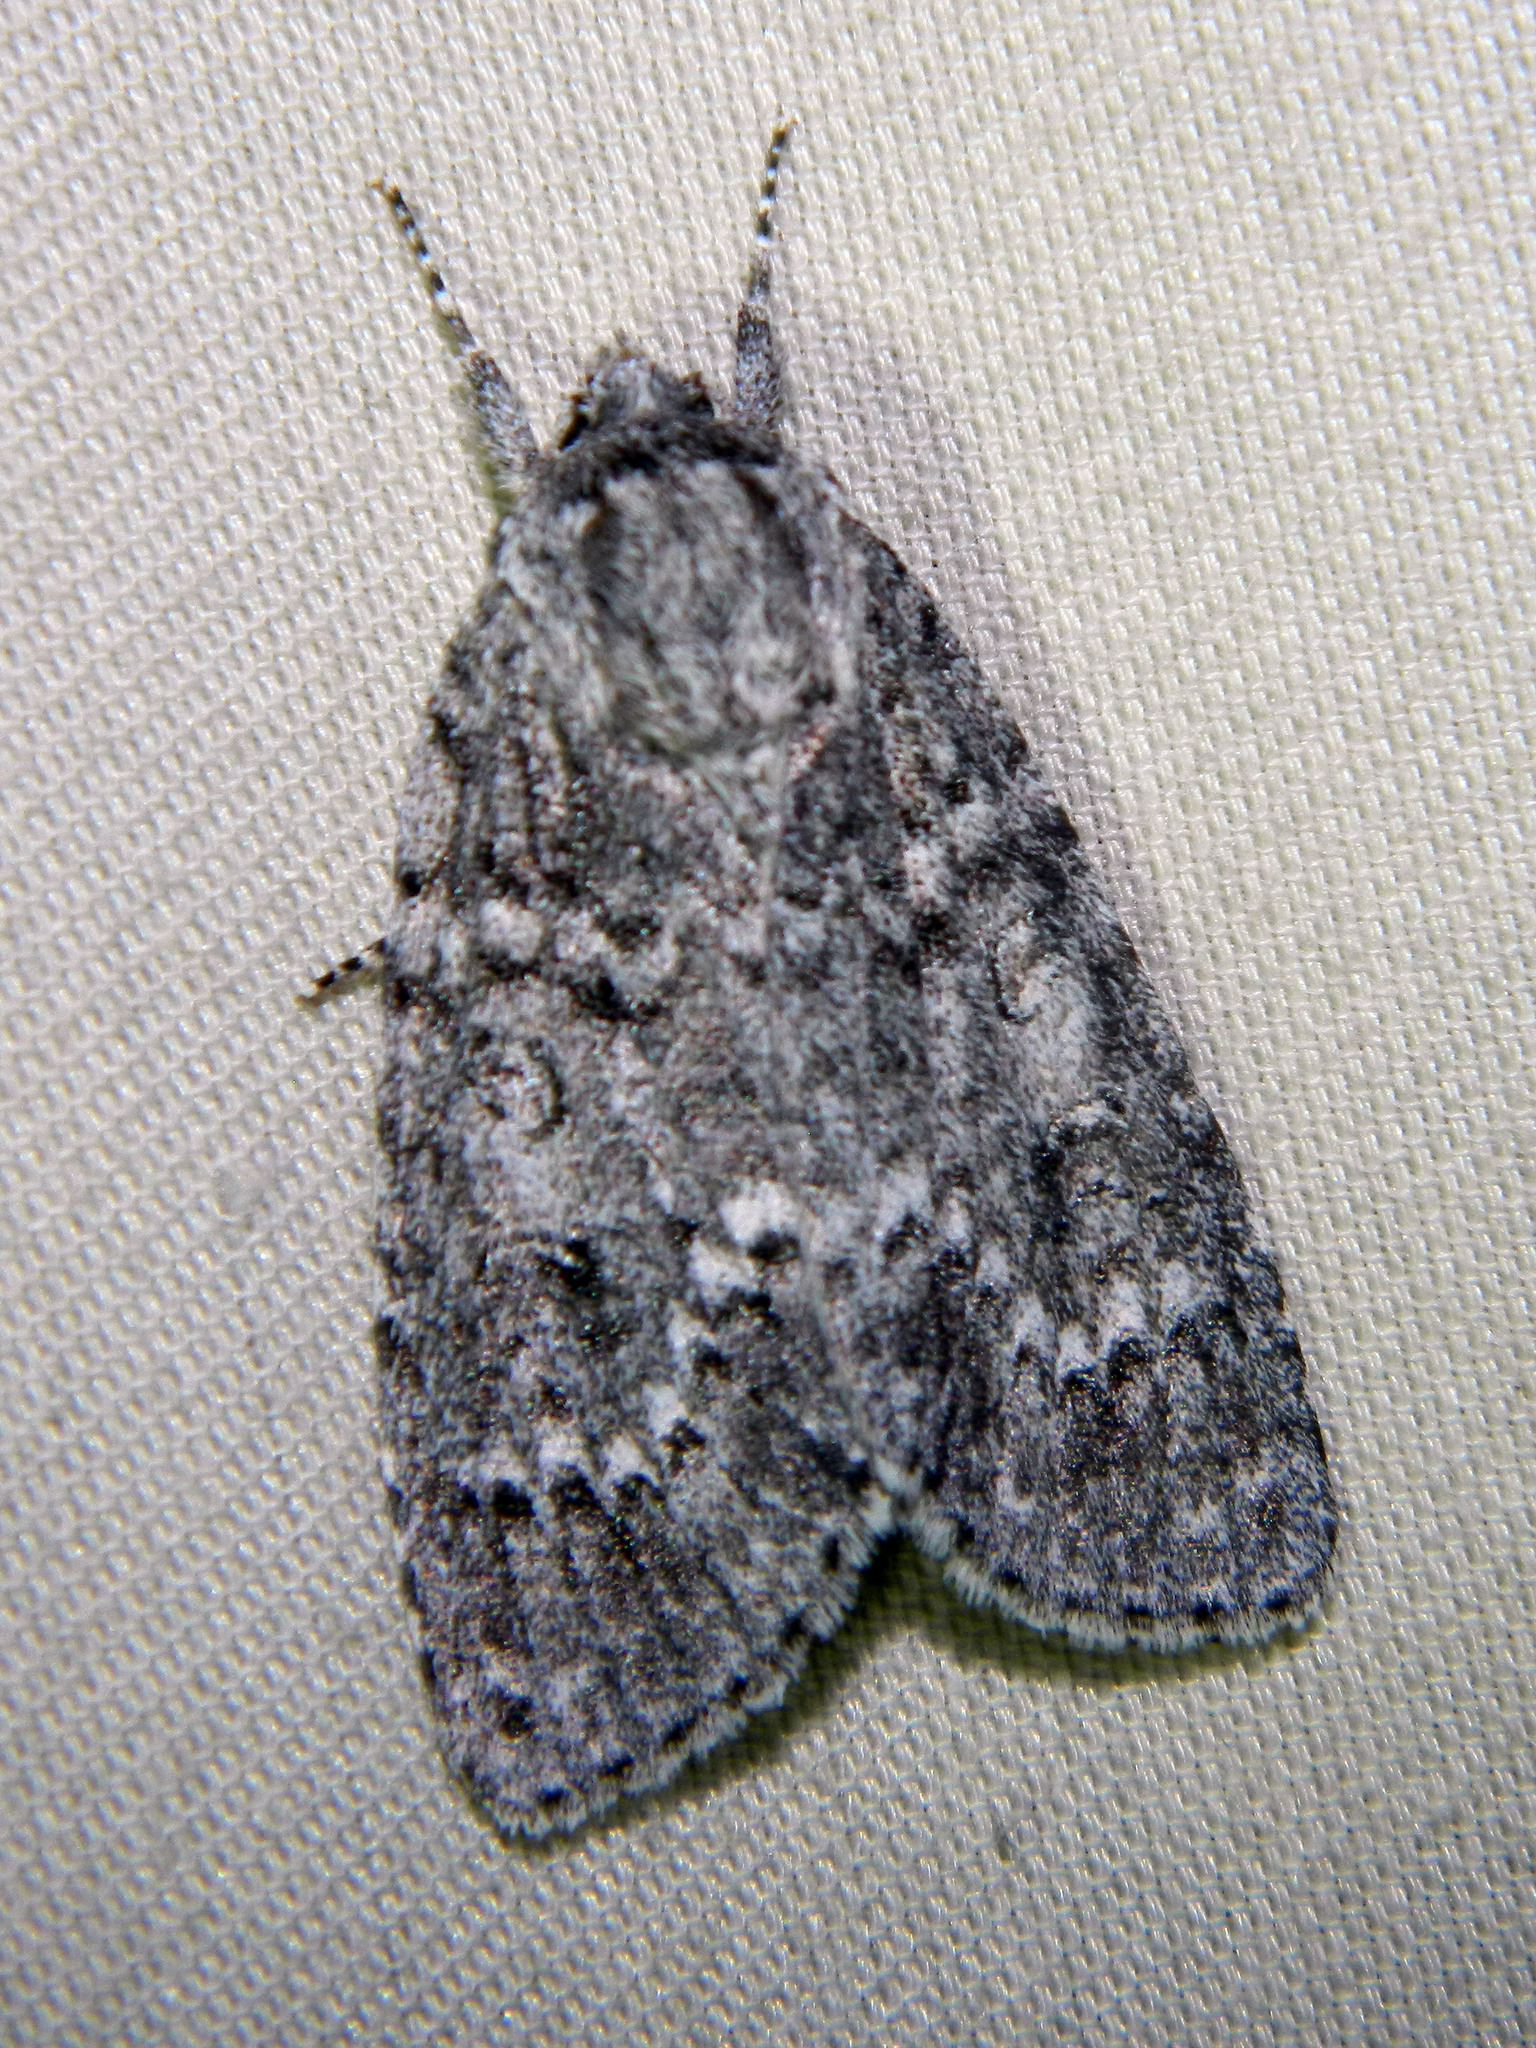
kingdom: Animalia
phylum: Arthropoda
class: Insecta
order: Lepidoptera
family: Noctuidae
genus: Acronicta
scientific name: Acronicta impleta
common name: Powdered dagger
